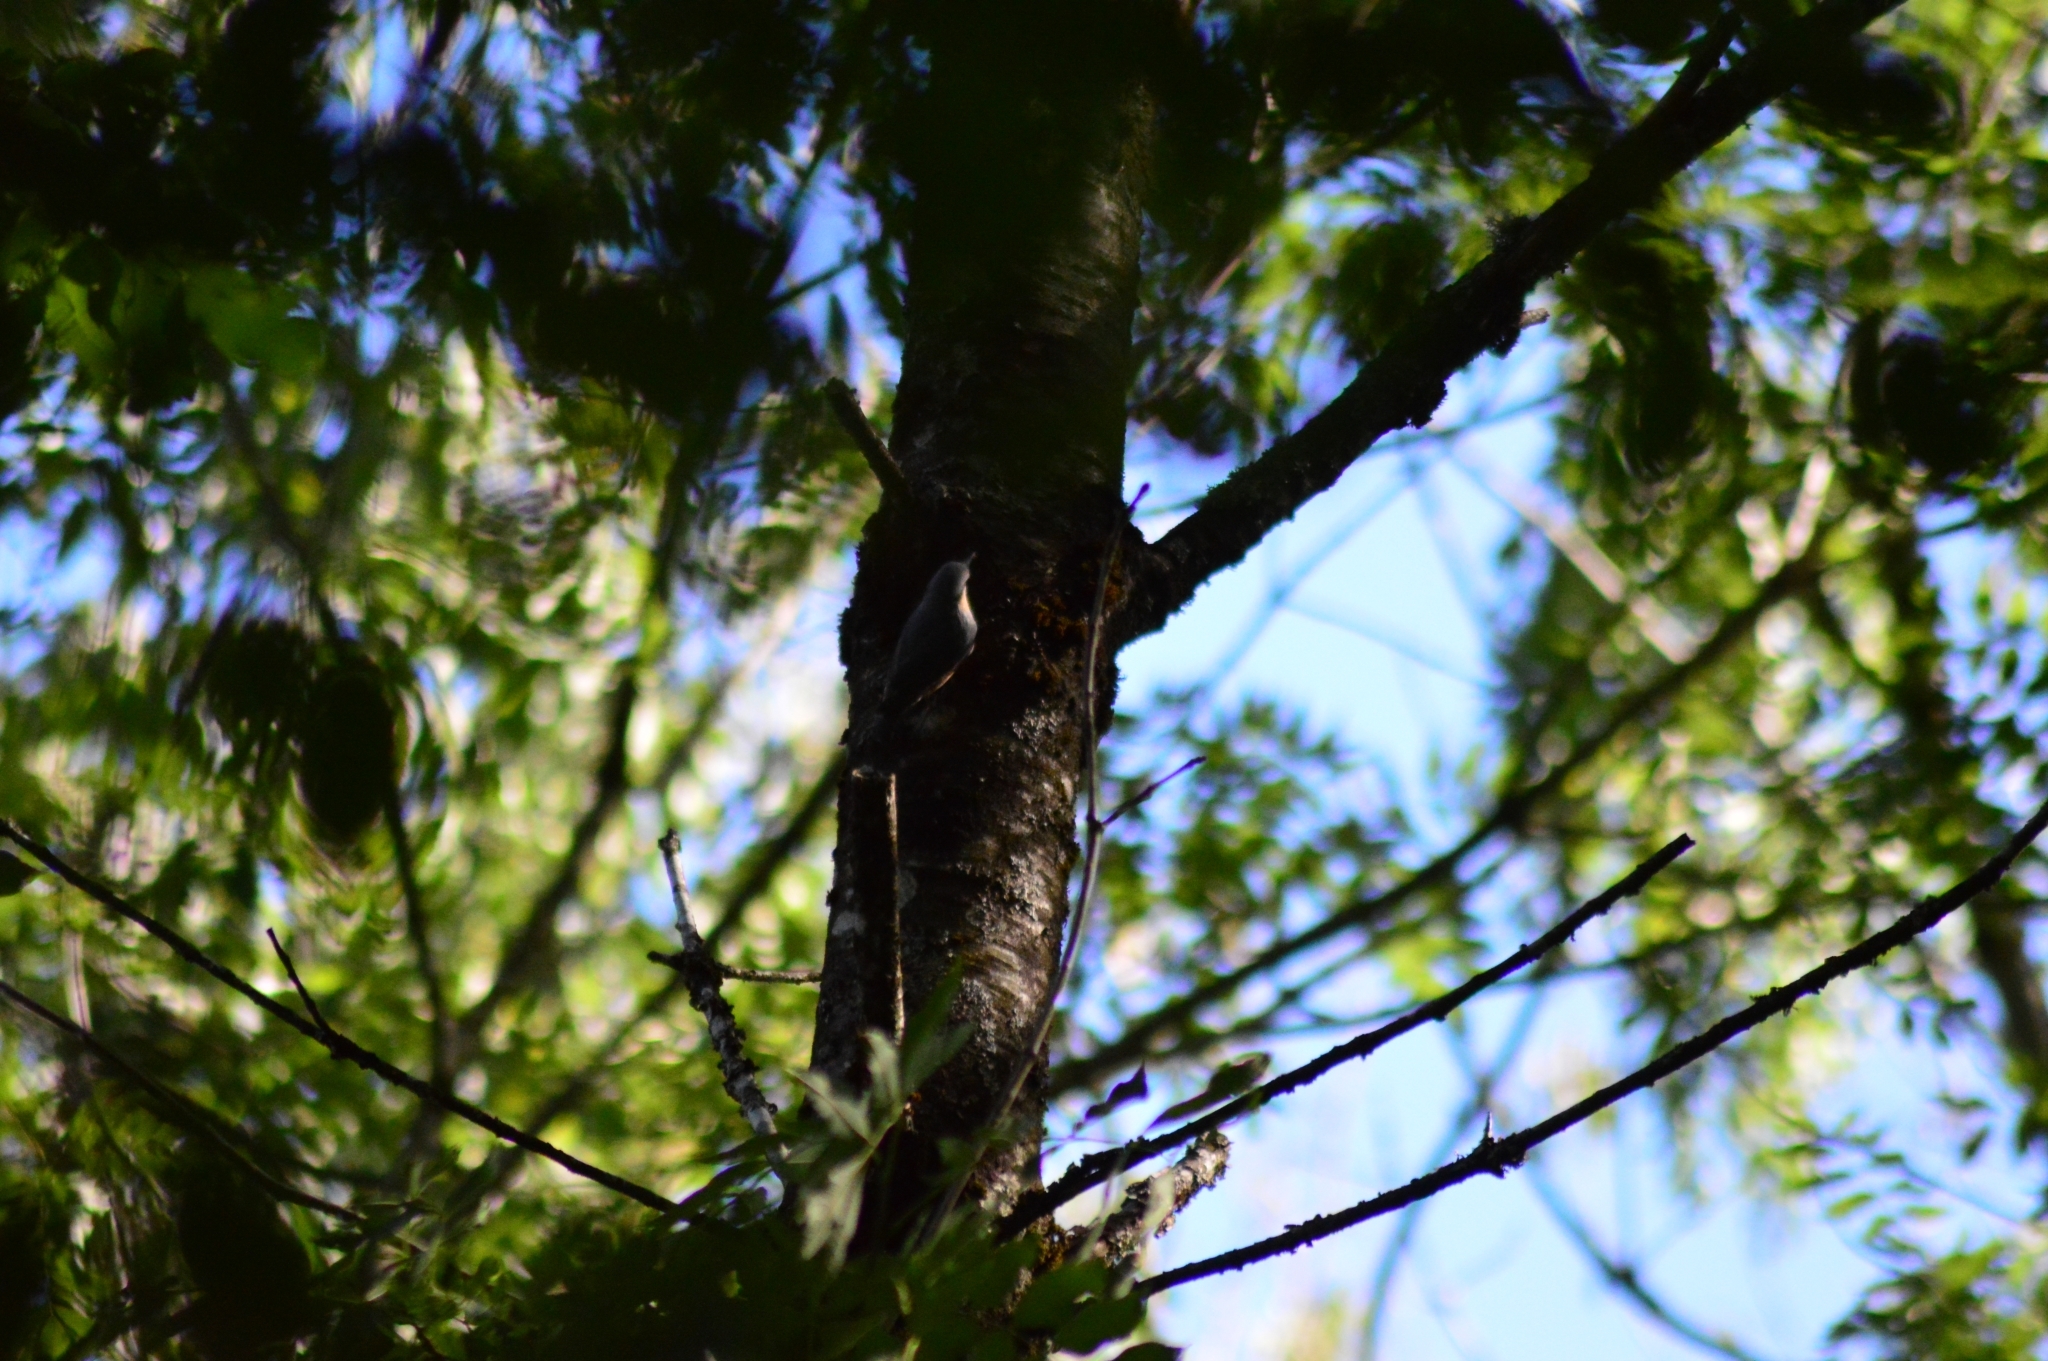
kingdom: Animalia
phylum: Chordata
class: Aves
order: Passeriformes
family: Sittidae
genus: Sitta
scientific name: Sitta europaea
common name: Eurasian nuthatch
